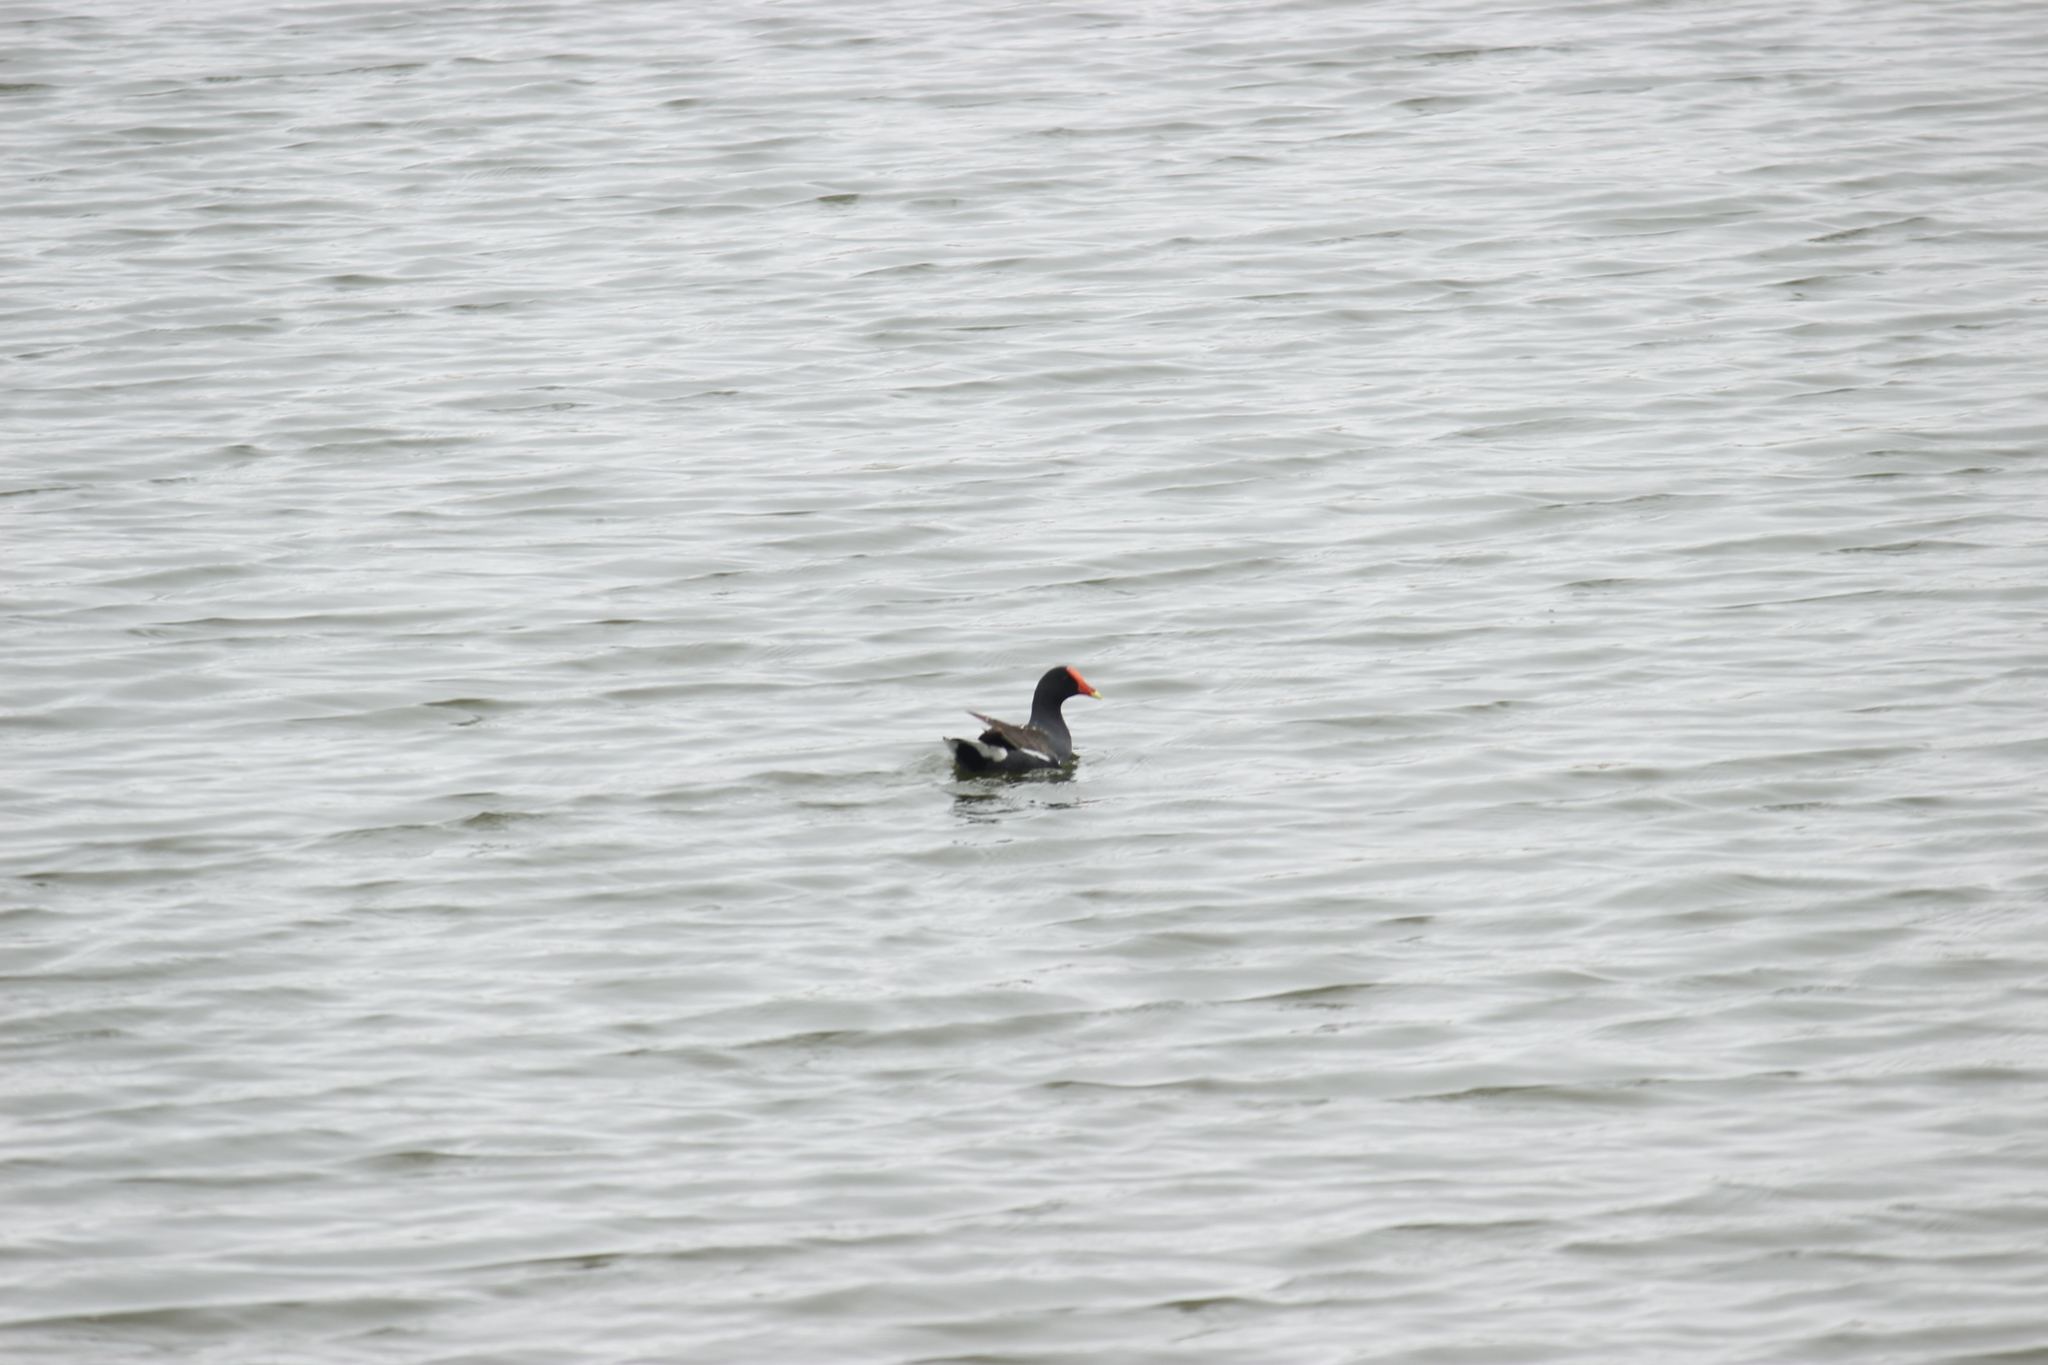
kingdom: Animalia
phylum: Chordata
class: Aves
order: Gruiformes
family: Rallidae
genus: Gallinula
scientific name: Gallinula chloropus
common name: Common moorhen
